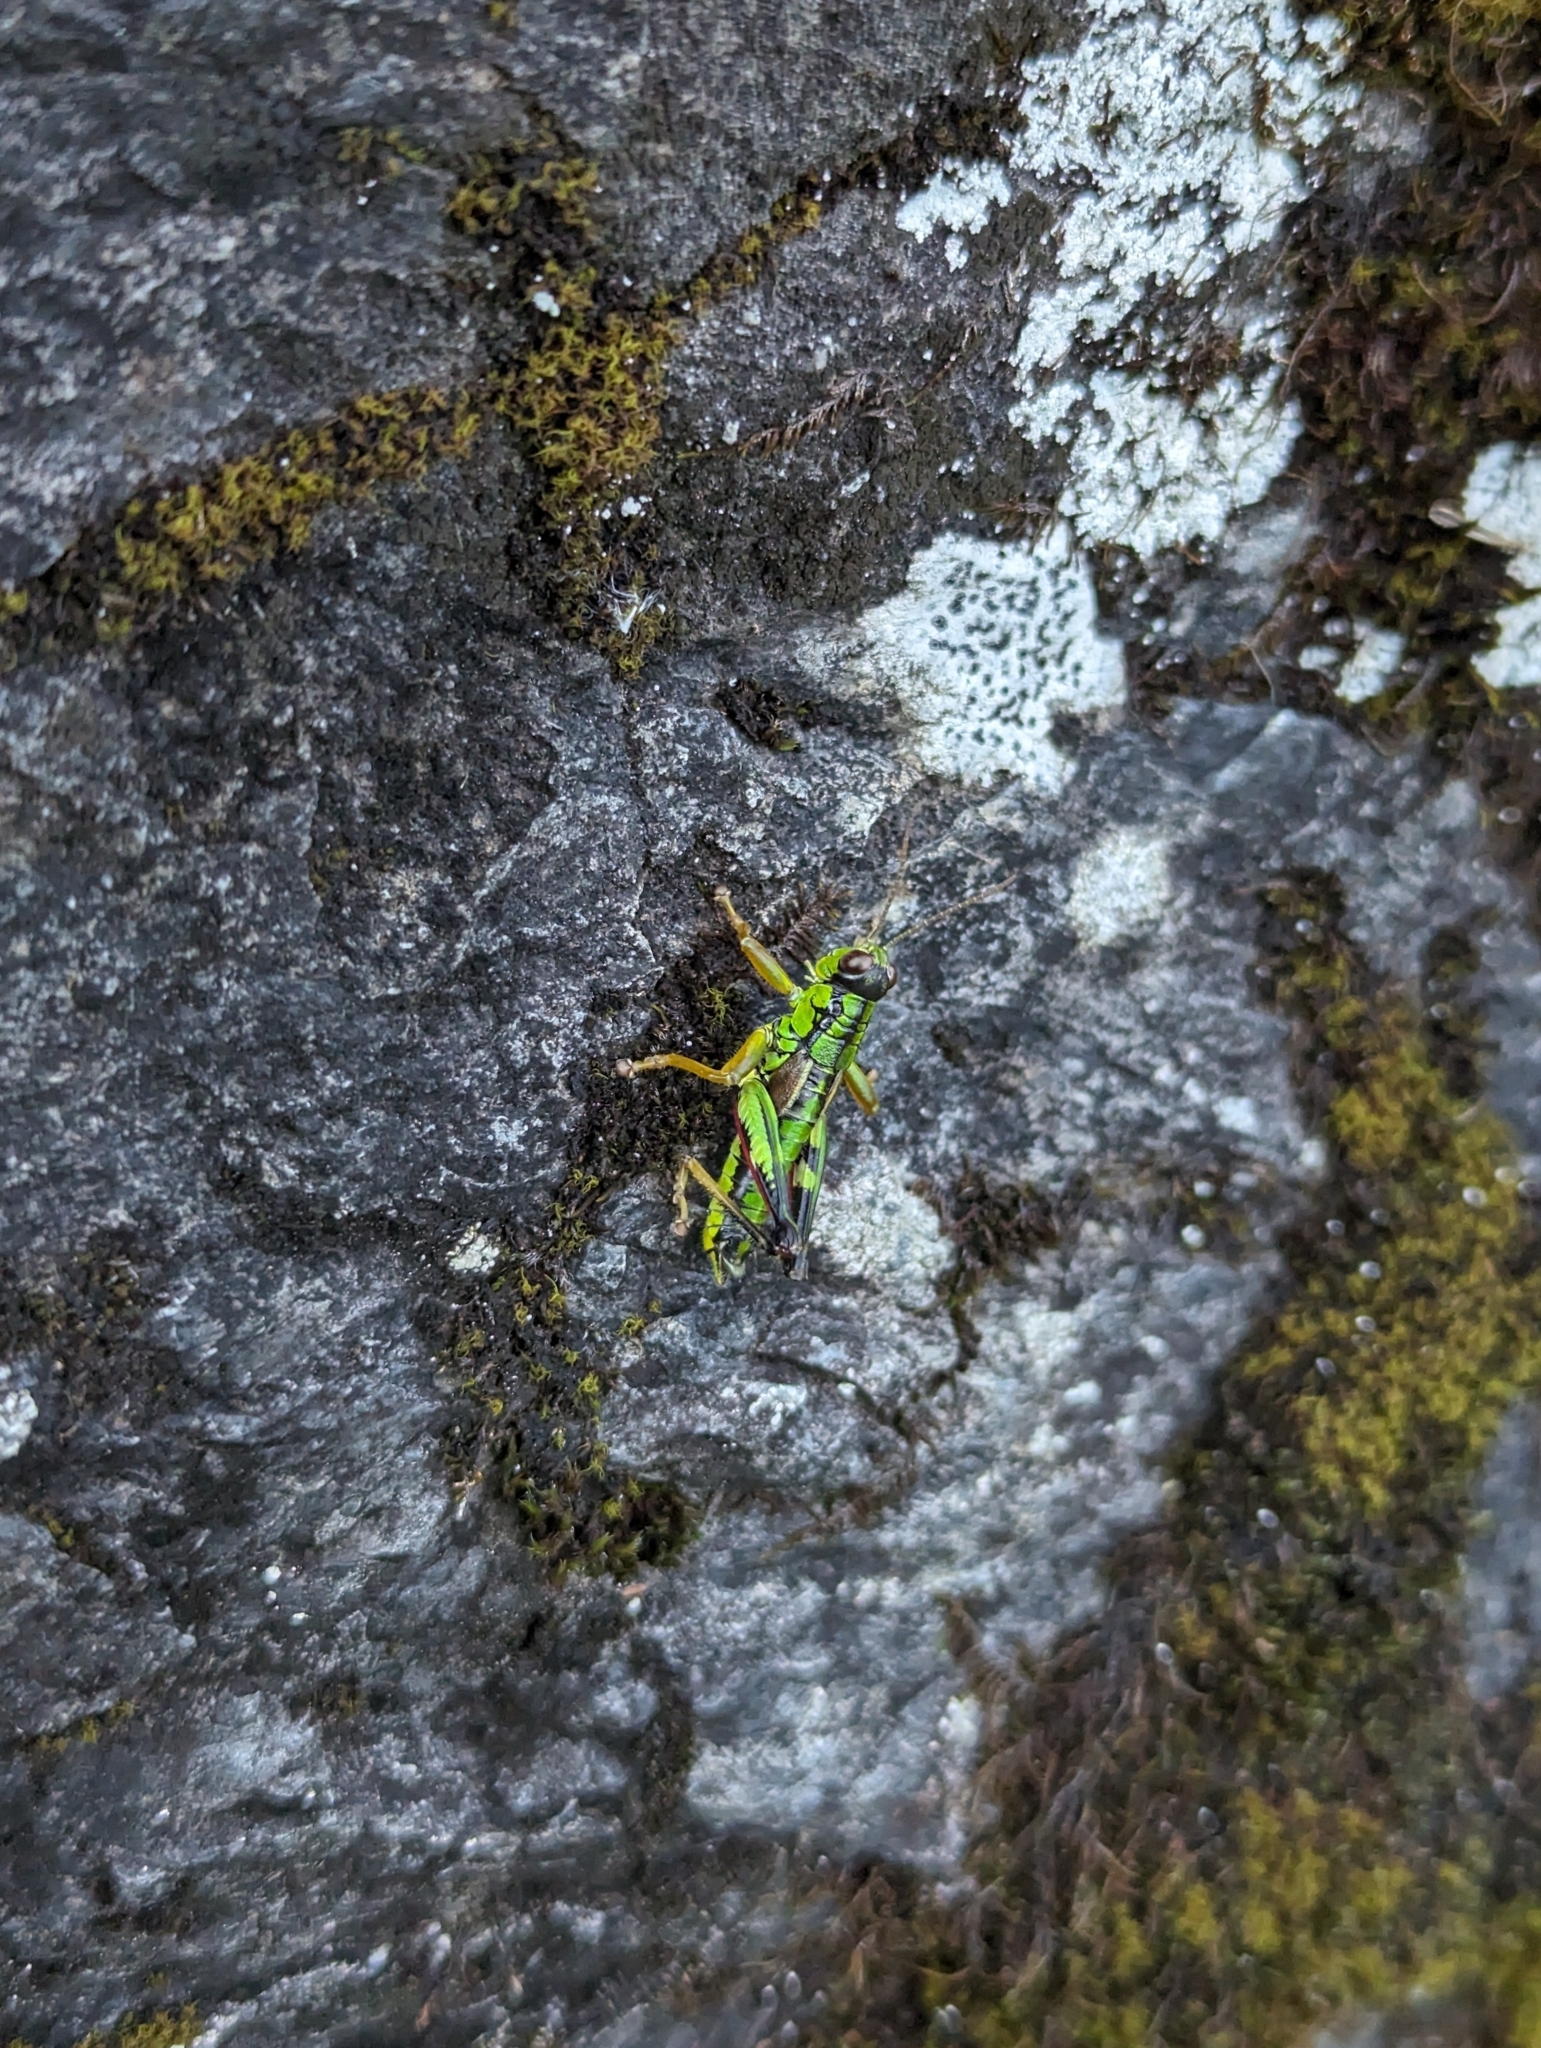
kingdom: Animalia
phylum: Arthropoda
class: Insecta
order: Orthoptera
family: Acrididae
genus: Miramella
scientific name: Miramella alpina
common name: Green mountain grasshopper
